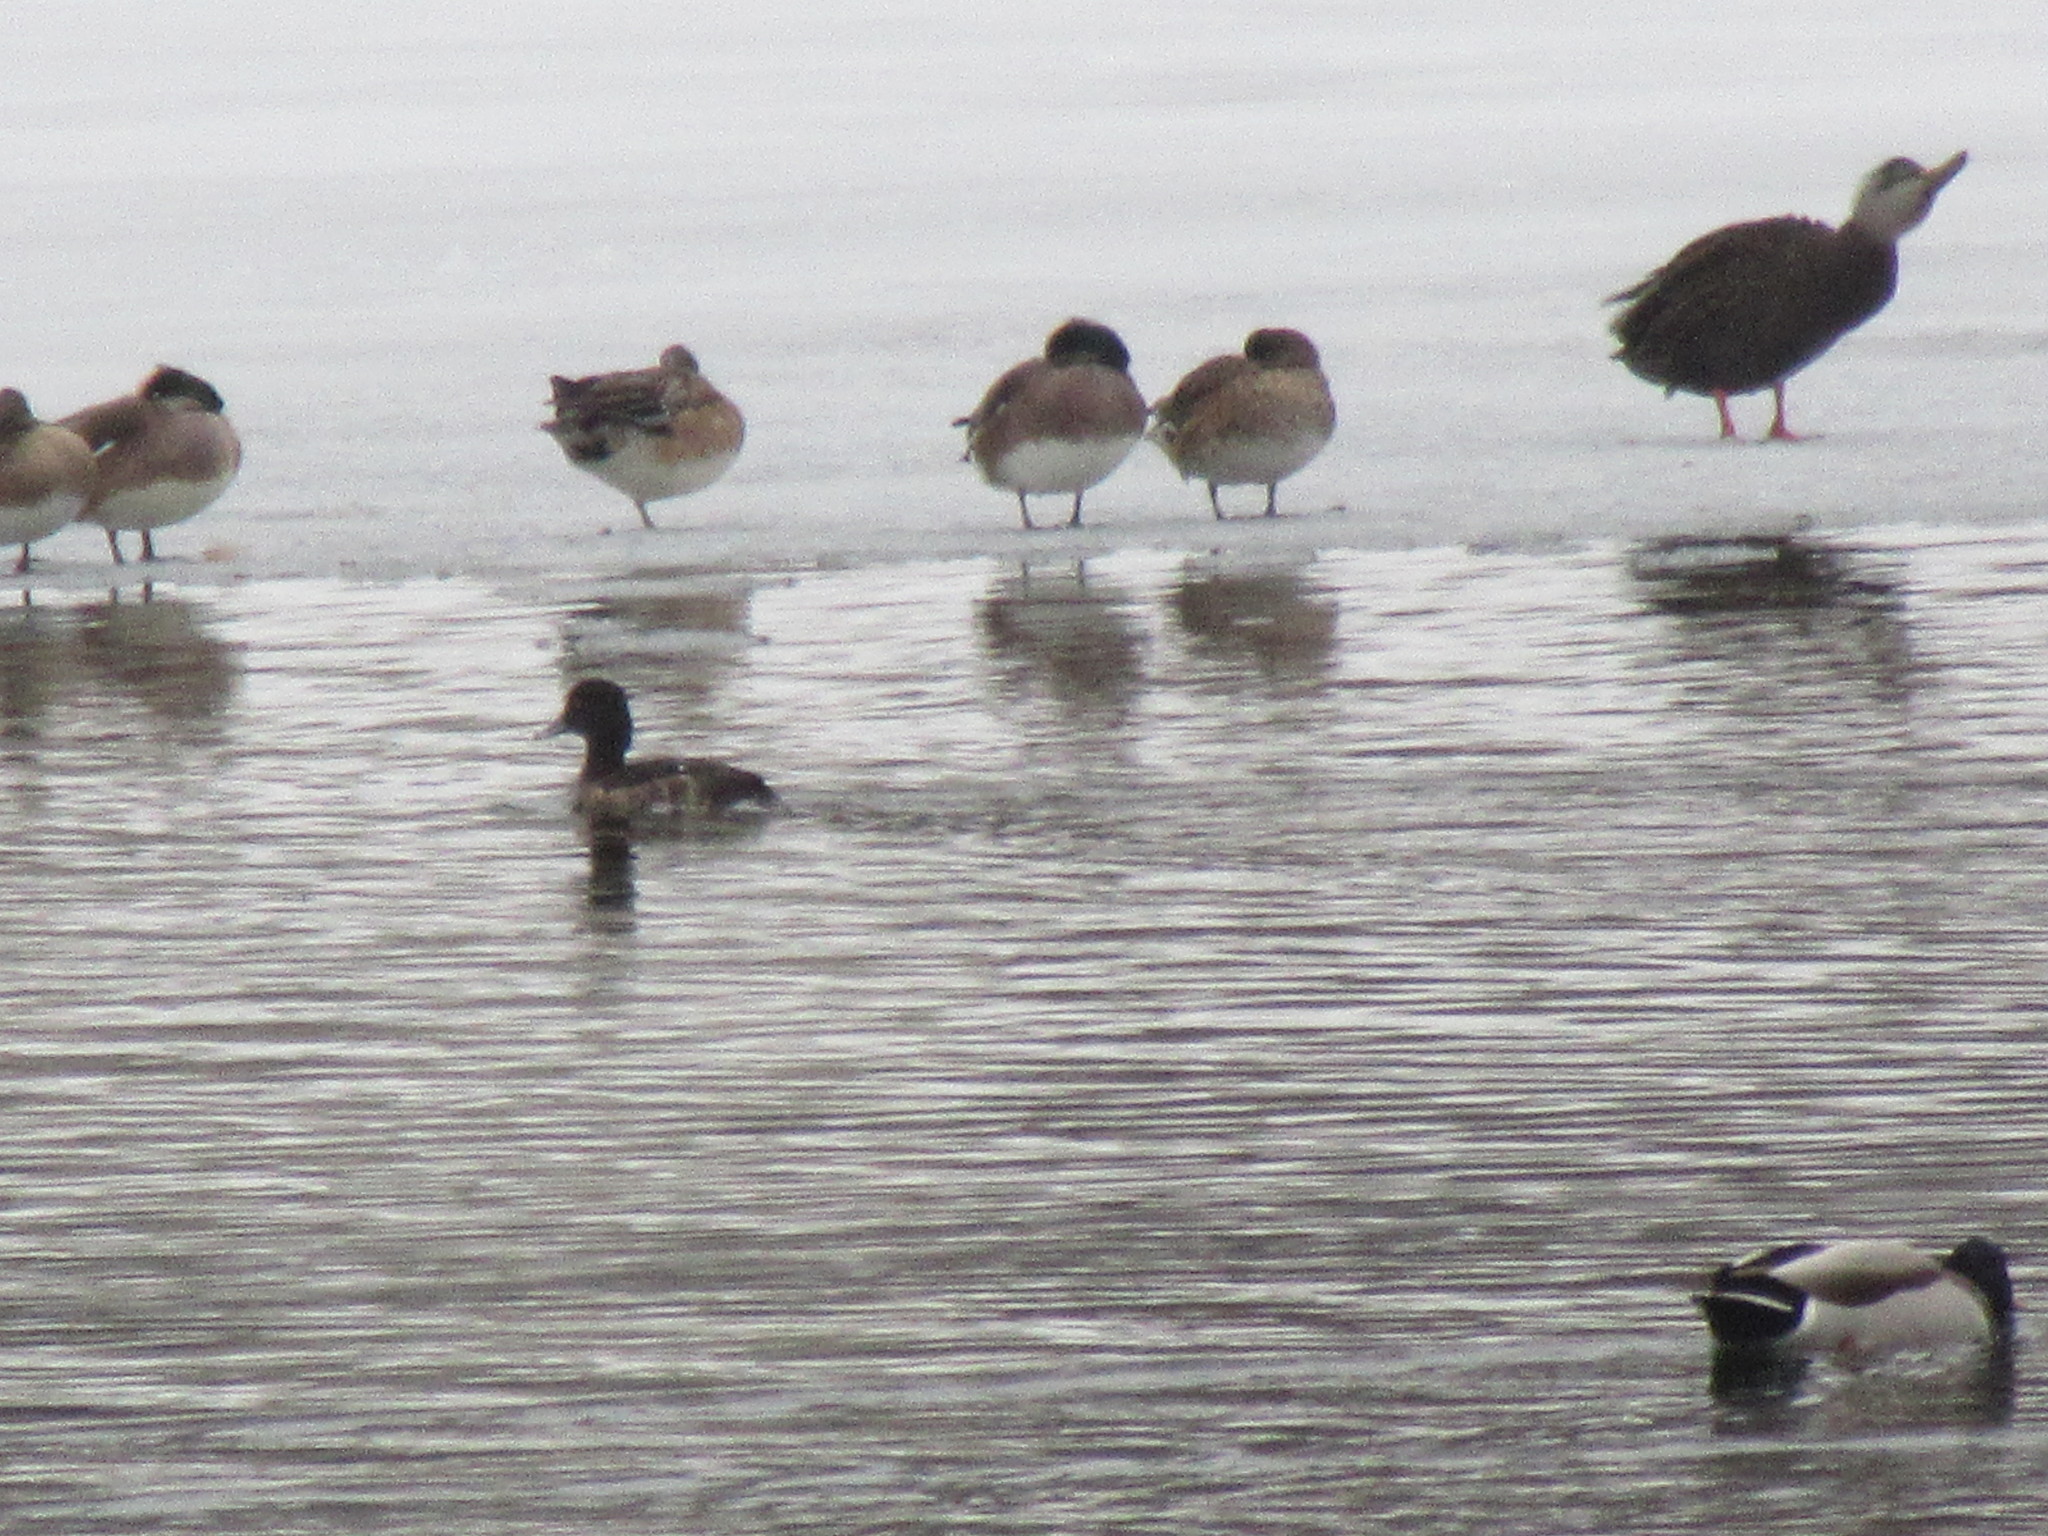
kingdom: Animalia
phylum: Chordata
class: Aves
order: Anseriformes
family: Anatidae
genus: Aythya
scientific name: Aythya fuligula
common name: Tufted duck
